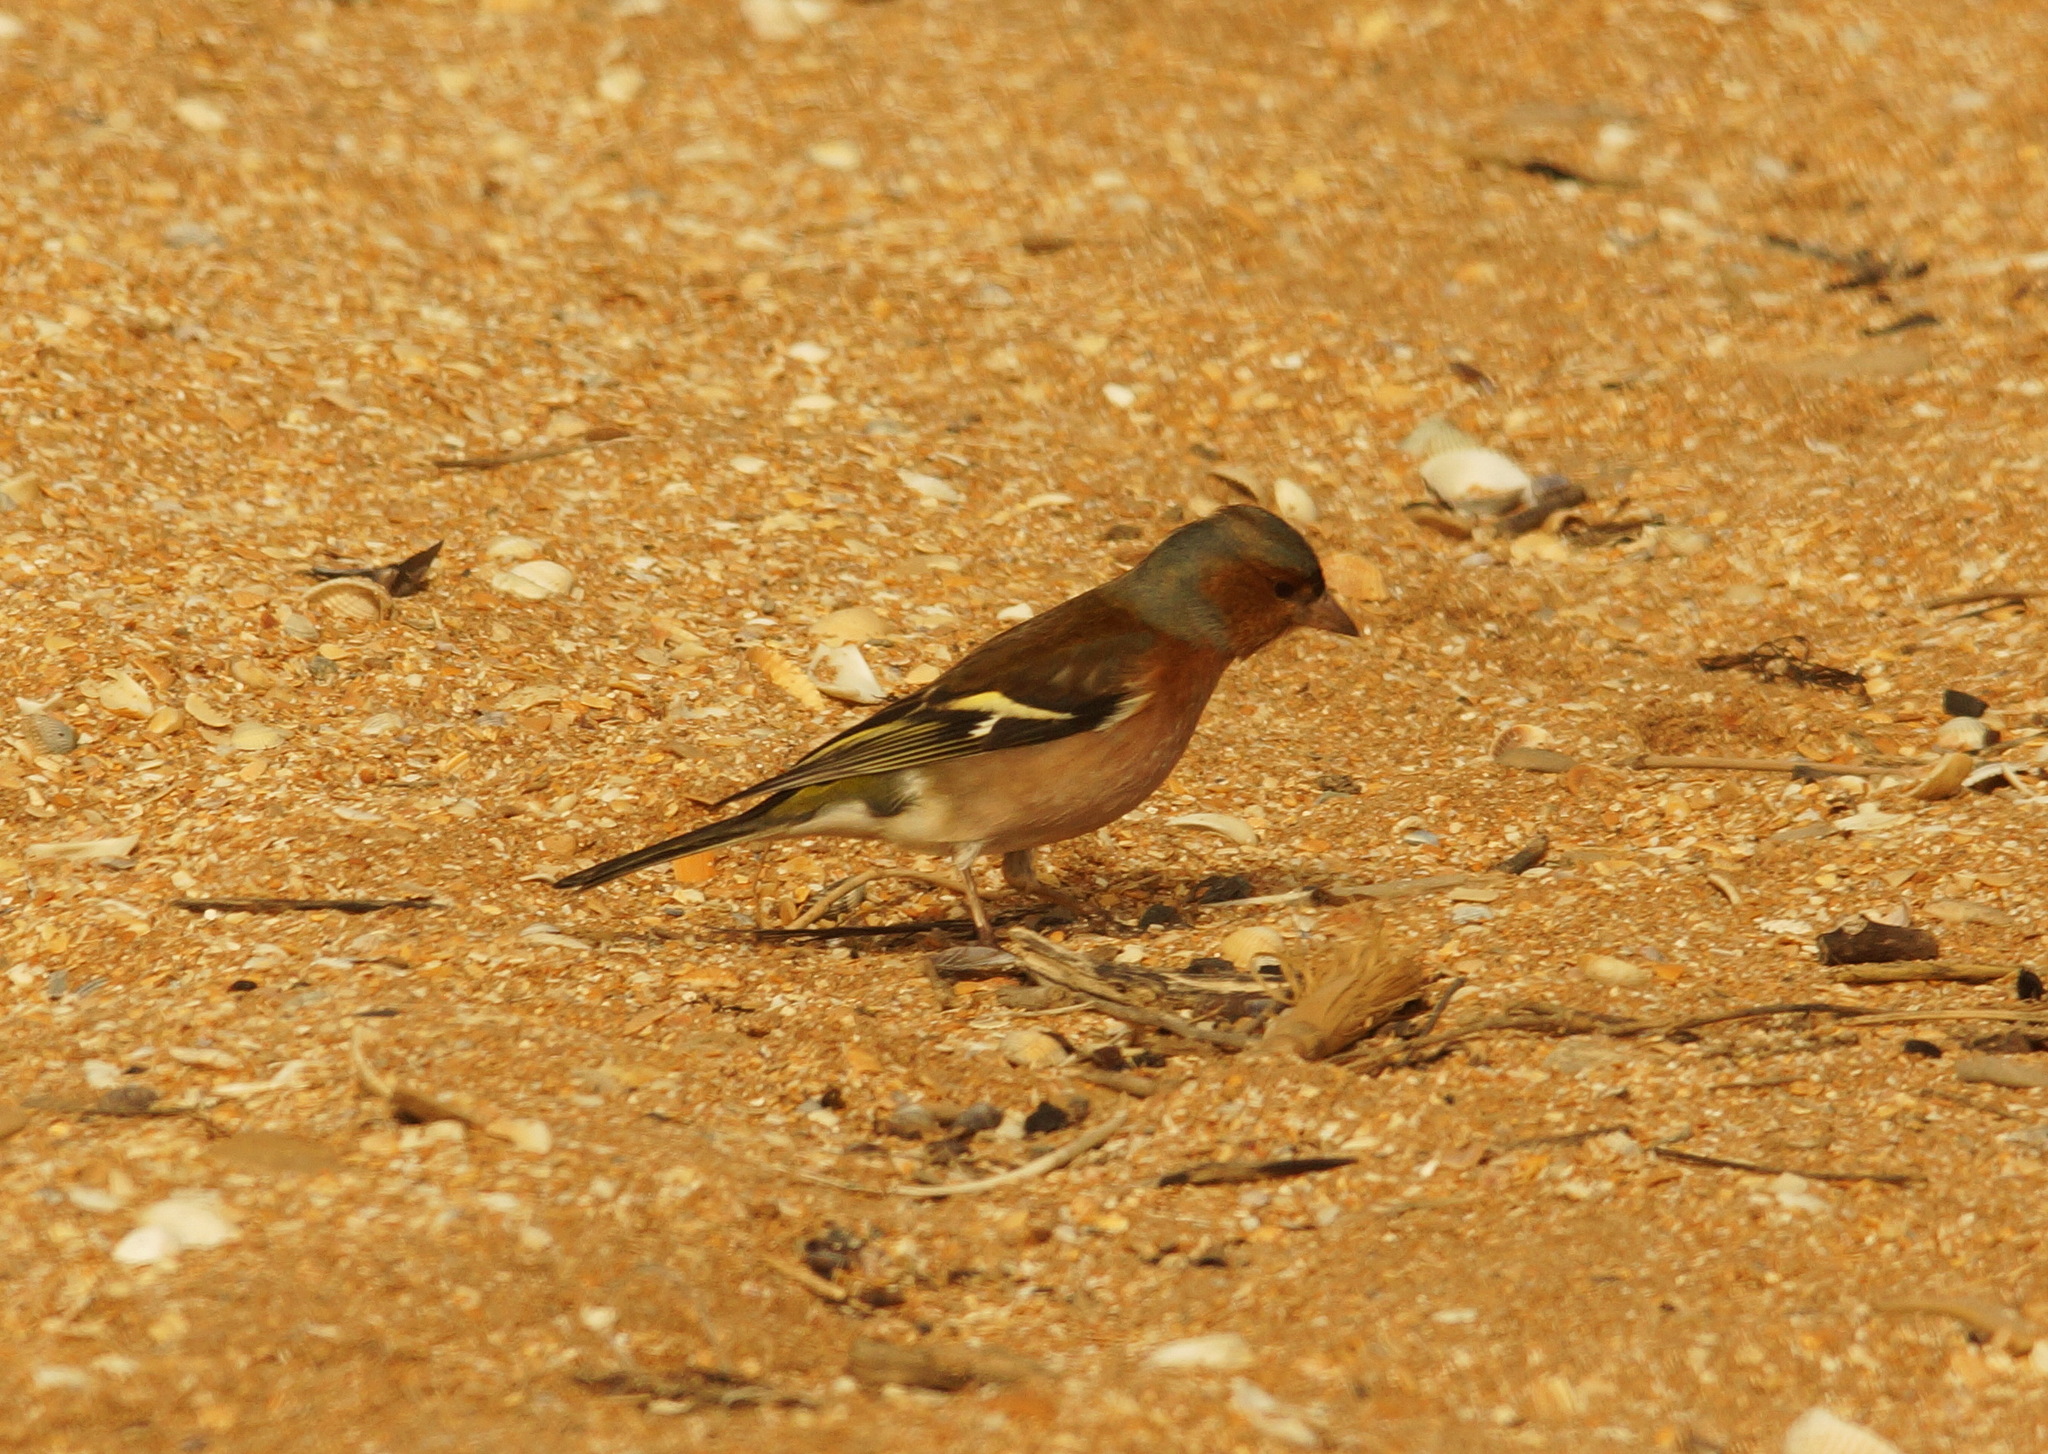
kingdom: Animalia
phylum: Chordata
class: Aves
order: Passeriformes
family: Fringillidae
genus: Fringilla
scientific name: Fringilla coelebs
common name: Common chaffinch
